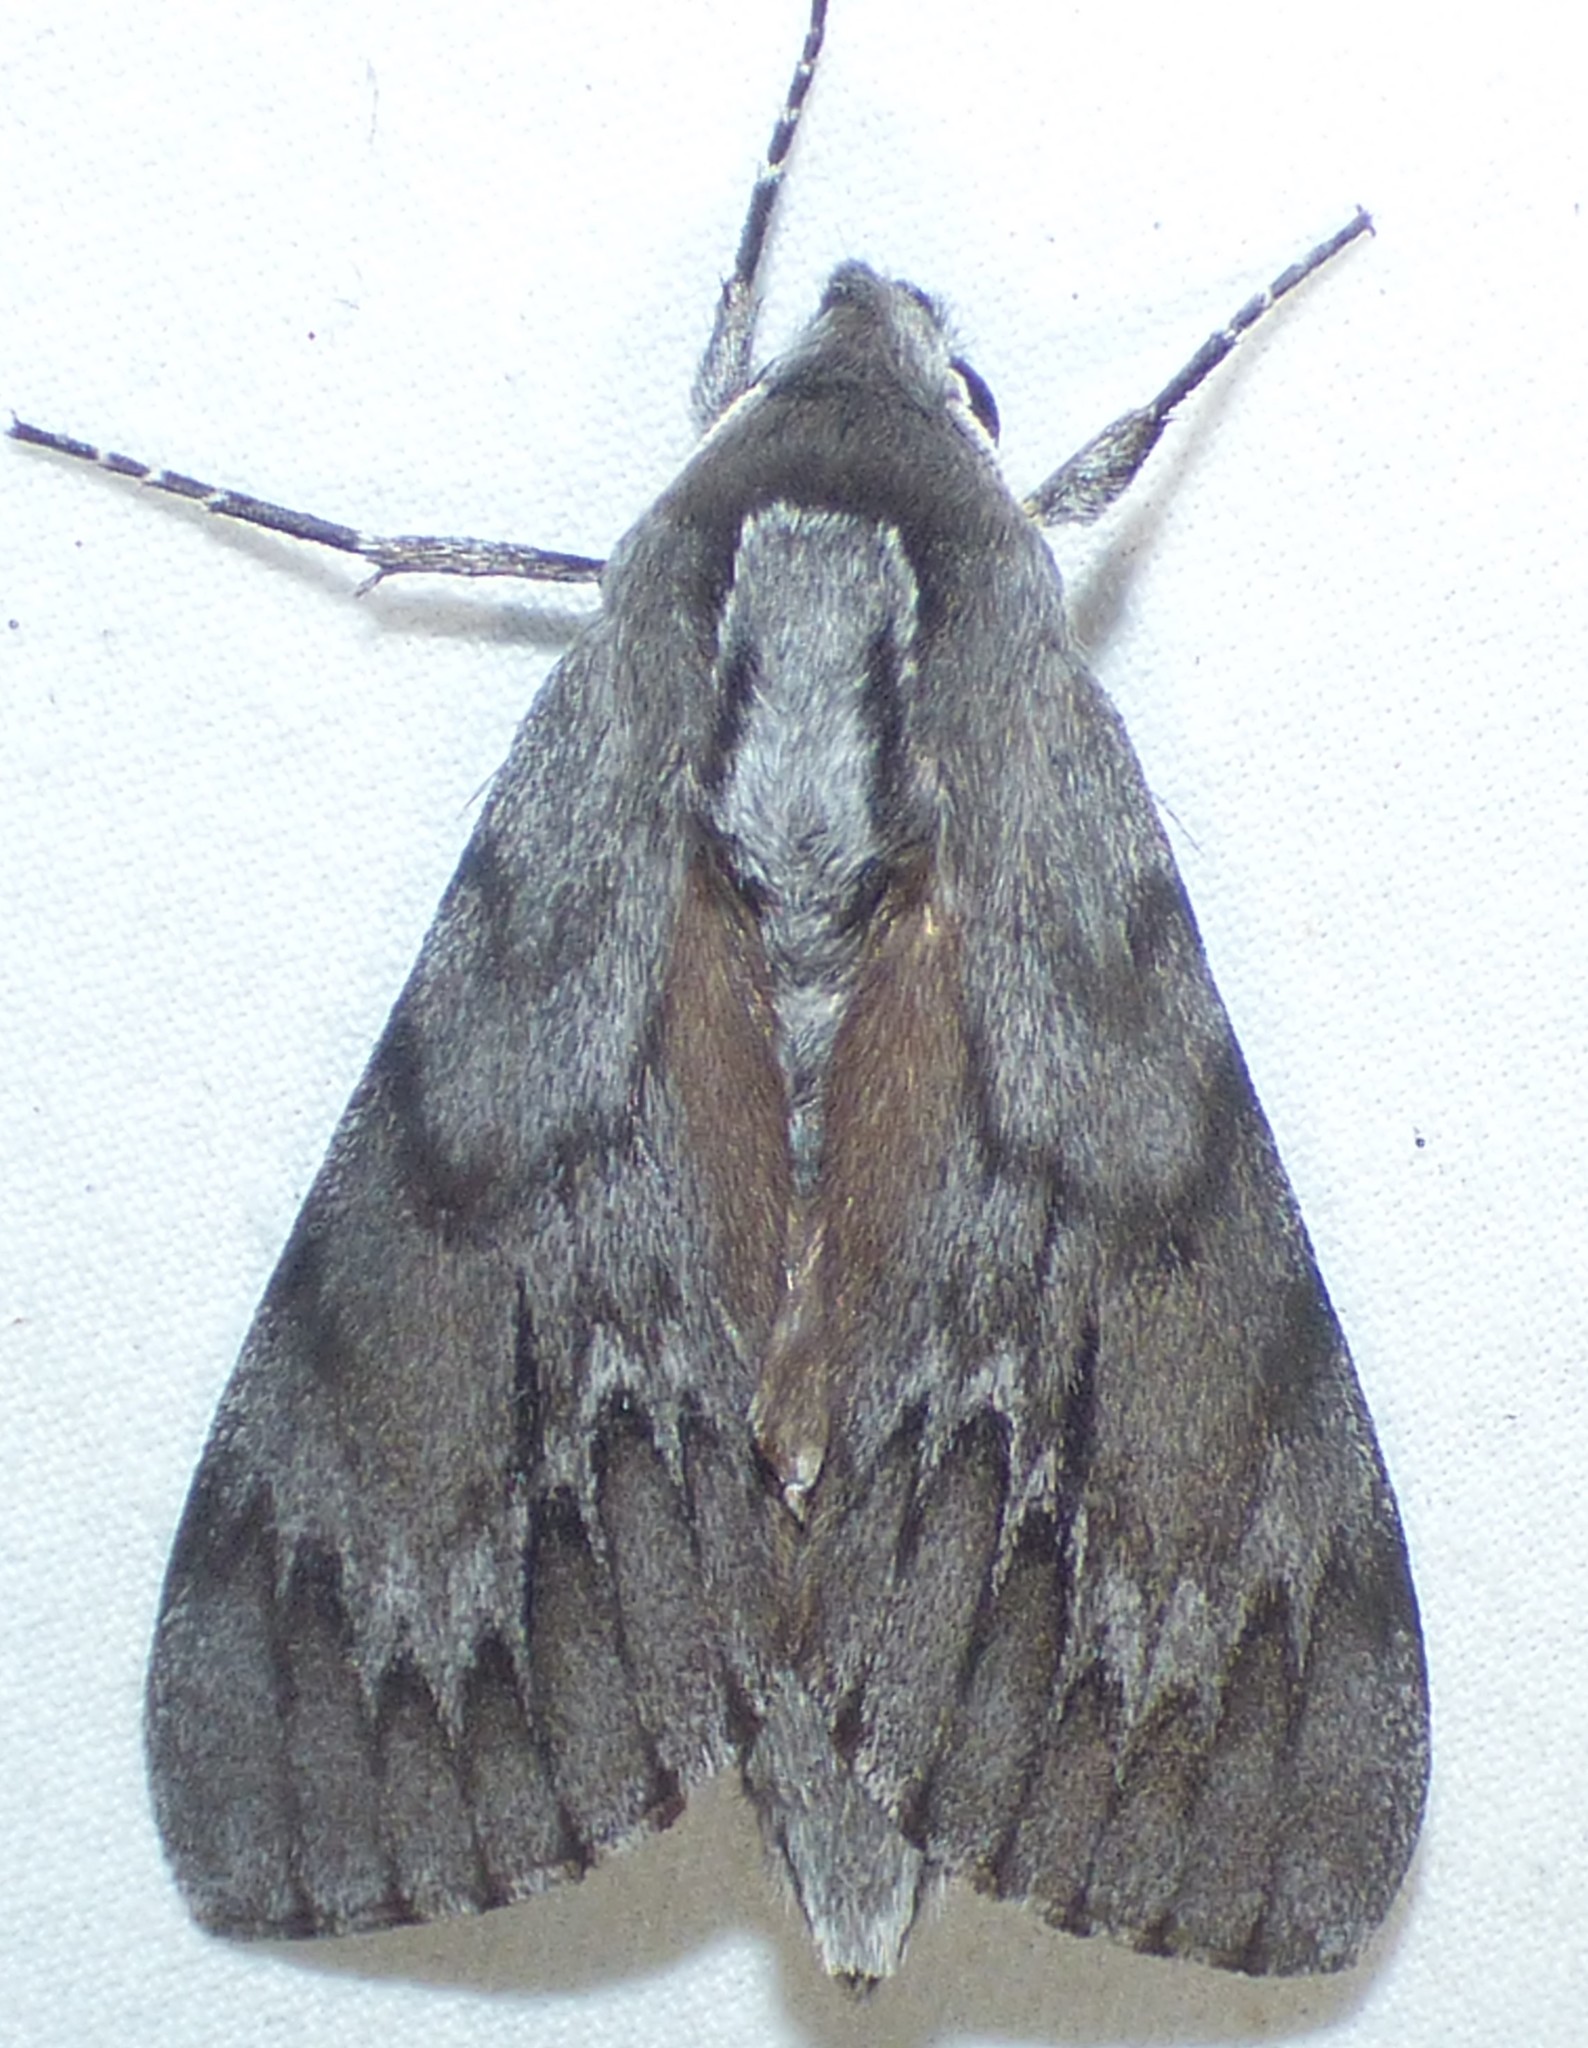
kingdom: Animalia
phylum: Arthropoda
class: Insecta
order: Lepidoptera
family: Sphingidae
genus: Lapara
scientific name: Lapara coniferarum
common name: Southern pine sphinx
